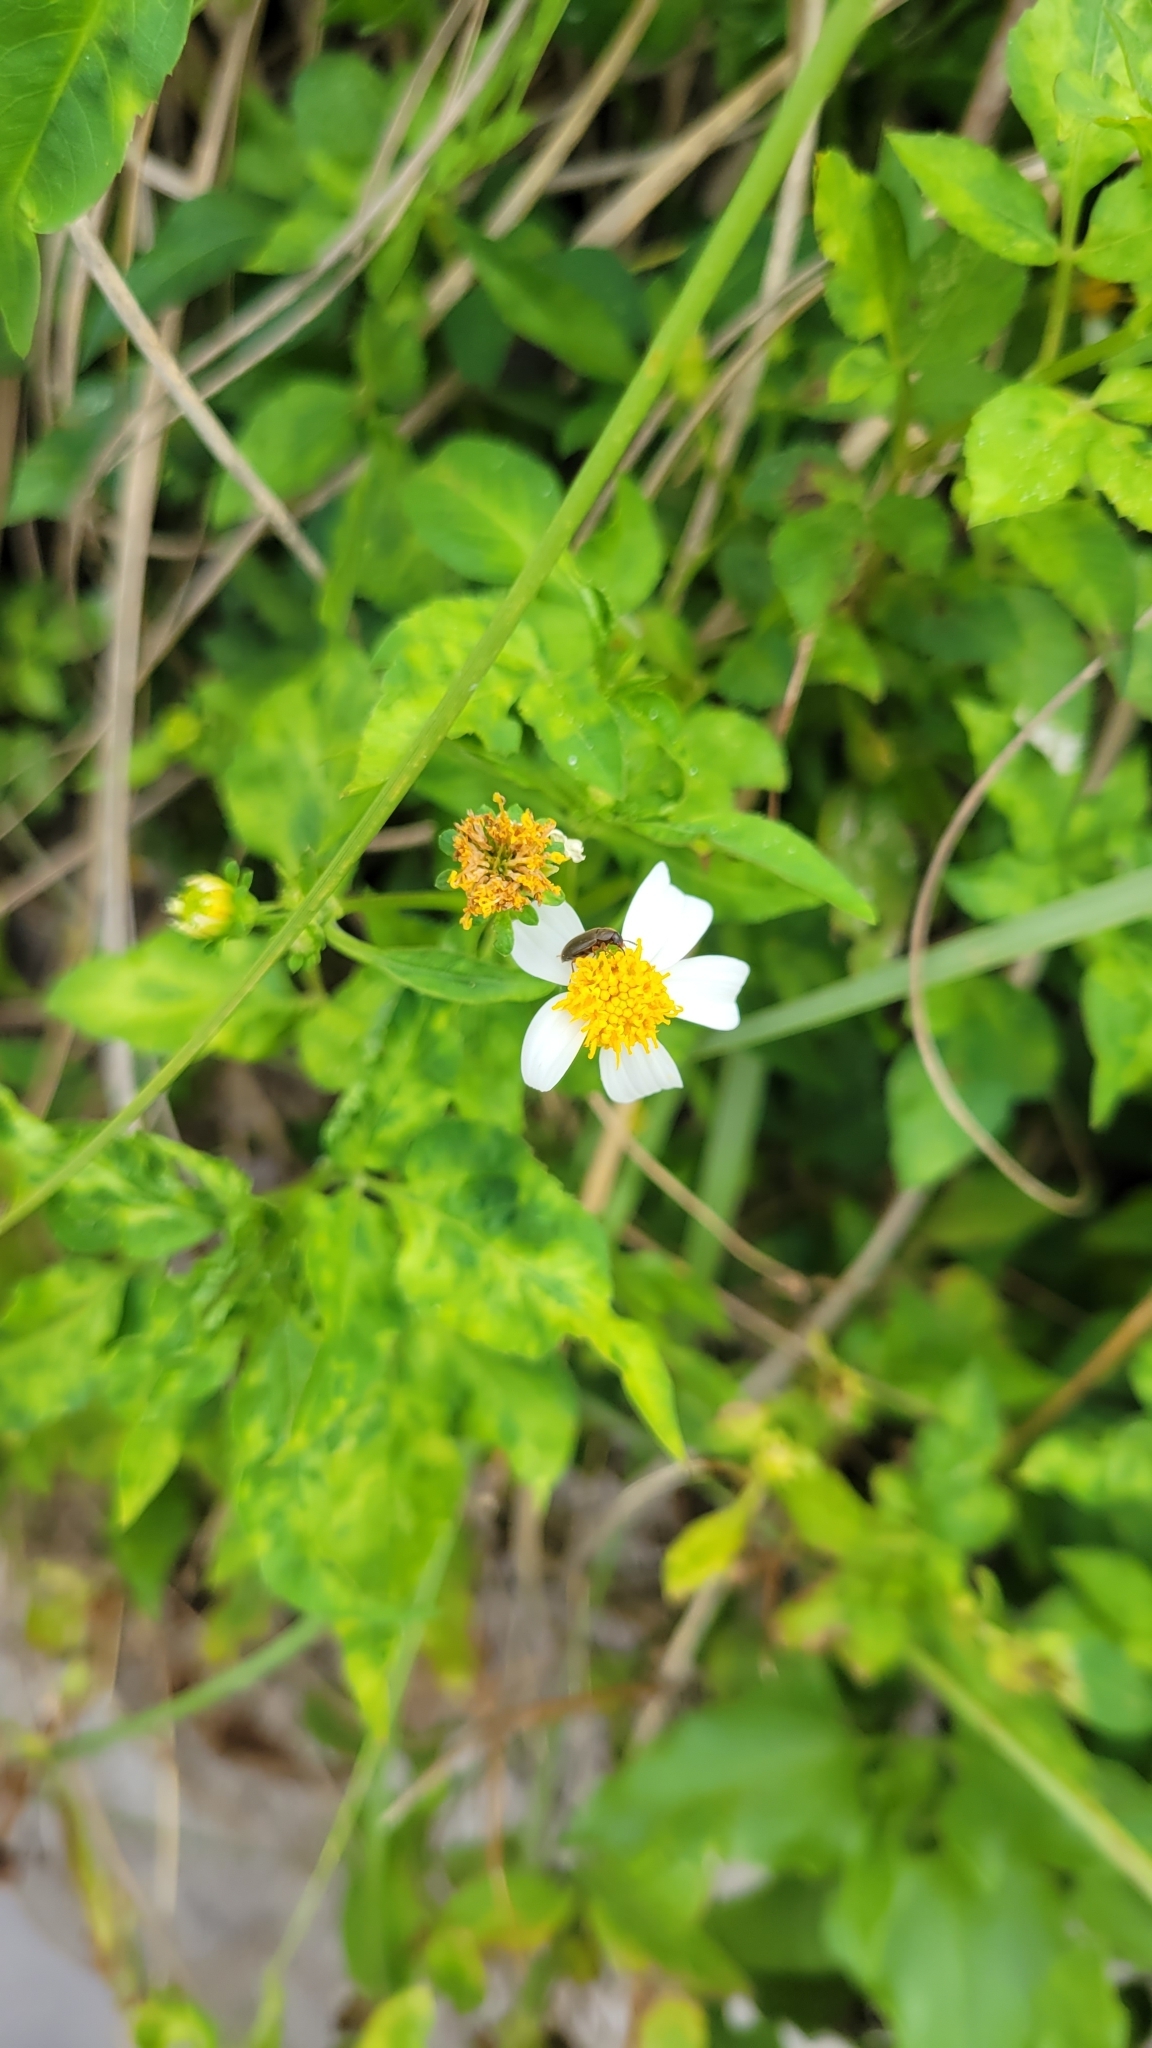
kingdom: Plantae
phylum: Tracheophyta
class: Magnoliopsida
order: Asterales
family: Asteraceae
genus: Bidens
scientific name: Bidens alba
